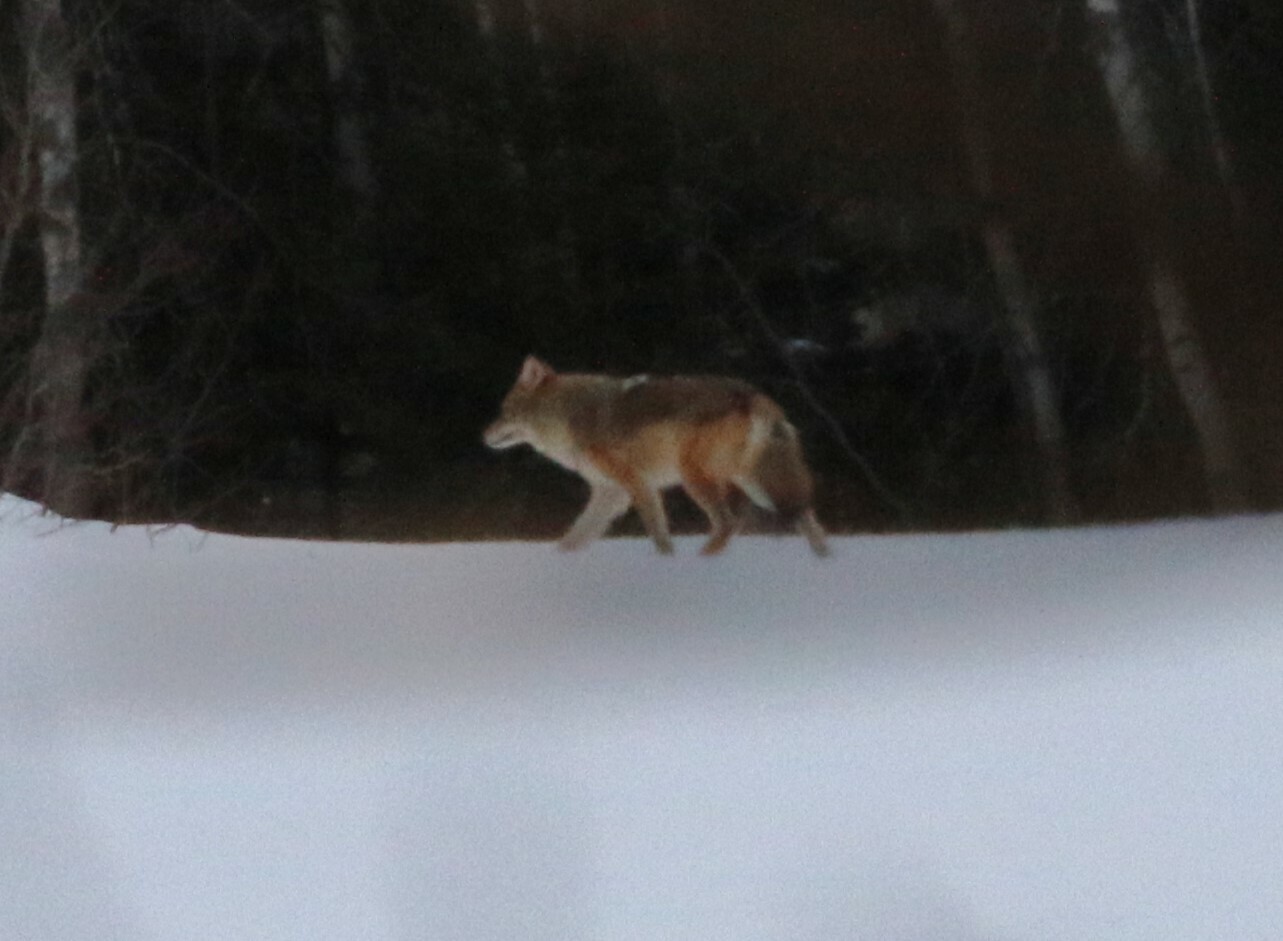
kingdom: Animalia
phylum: Chordata
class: Mammalia
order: Carnivora
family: Canidae
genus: Canis
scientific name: Canis latrans
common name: Coyote
